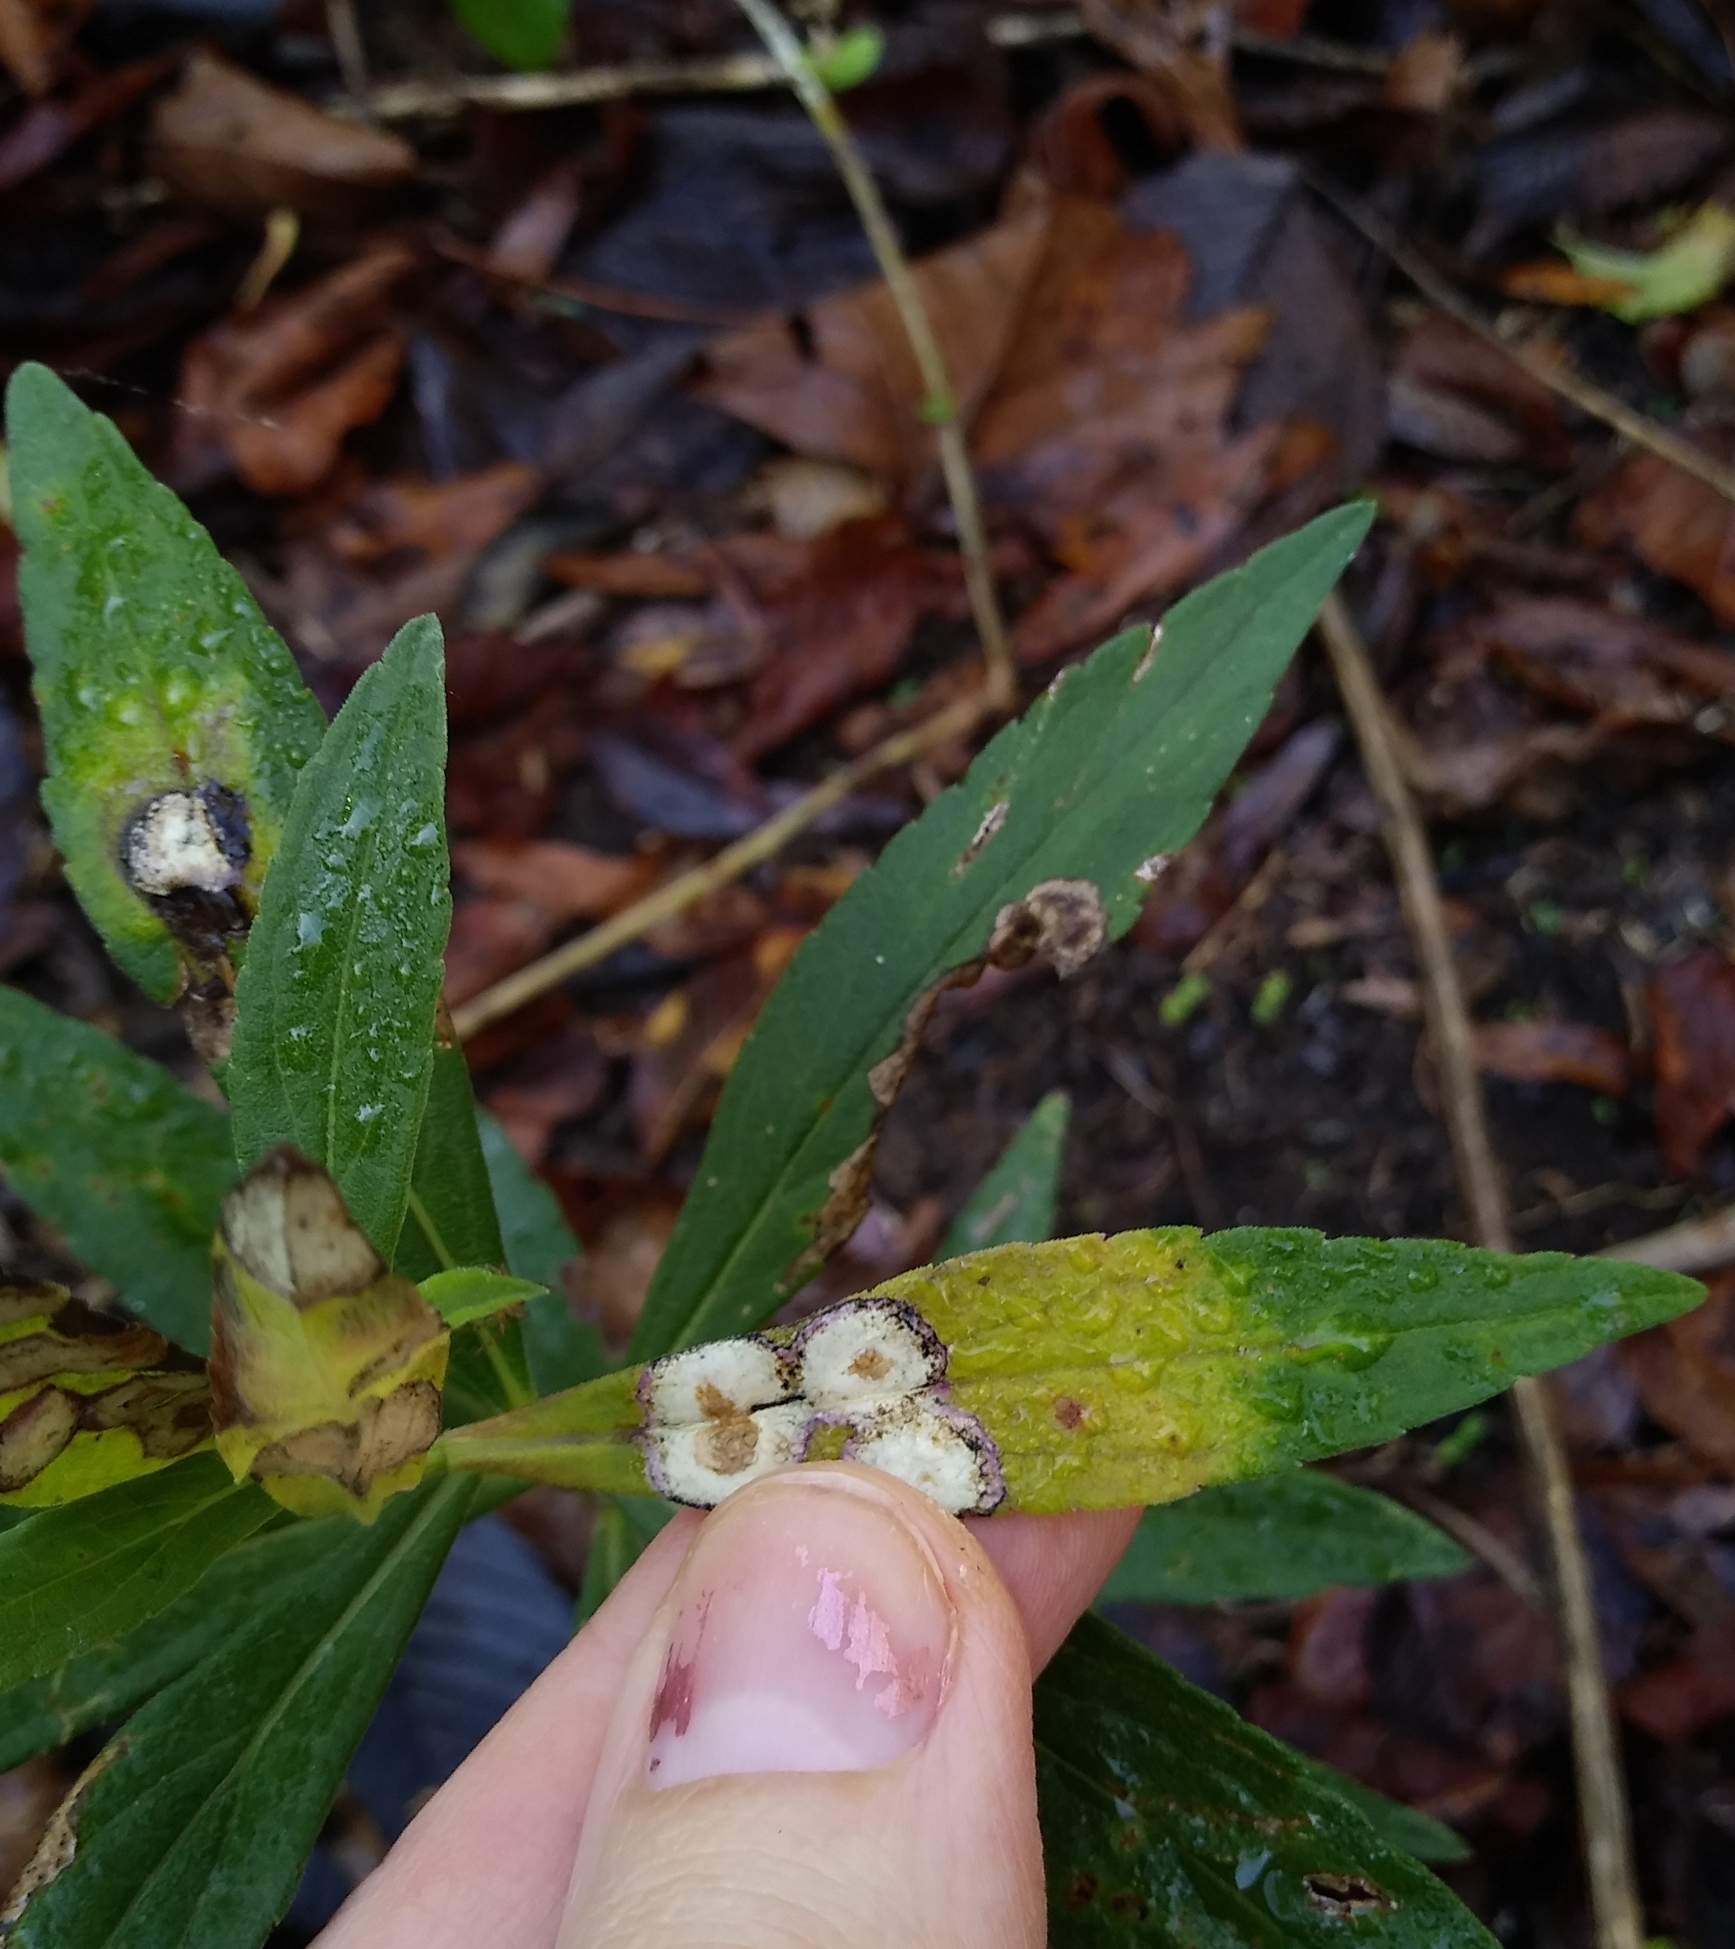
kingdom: Animalia
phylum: Arthropoda
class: Insecta
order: Diptera
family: Cecidomyiidae
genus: Asteromyia
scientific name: Asteromyia carbonifera
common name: Carbonifera goldenrod gall midge
